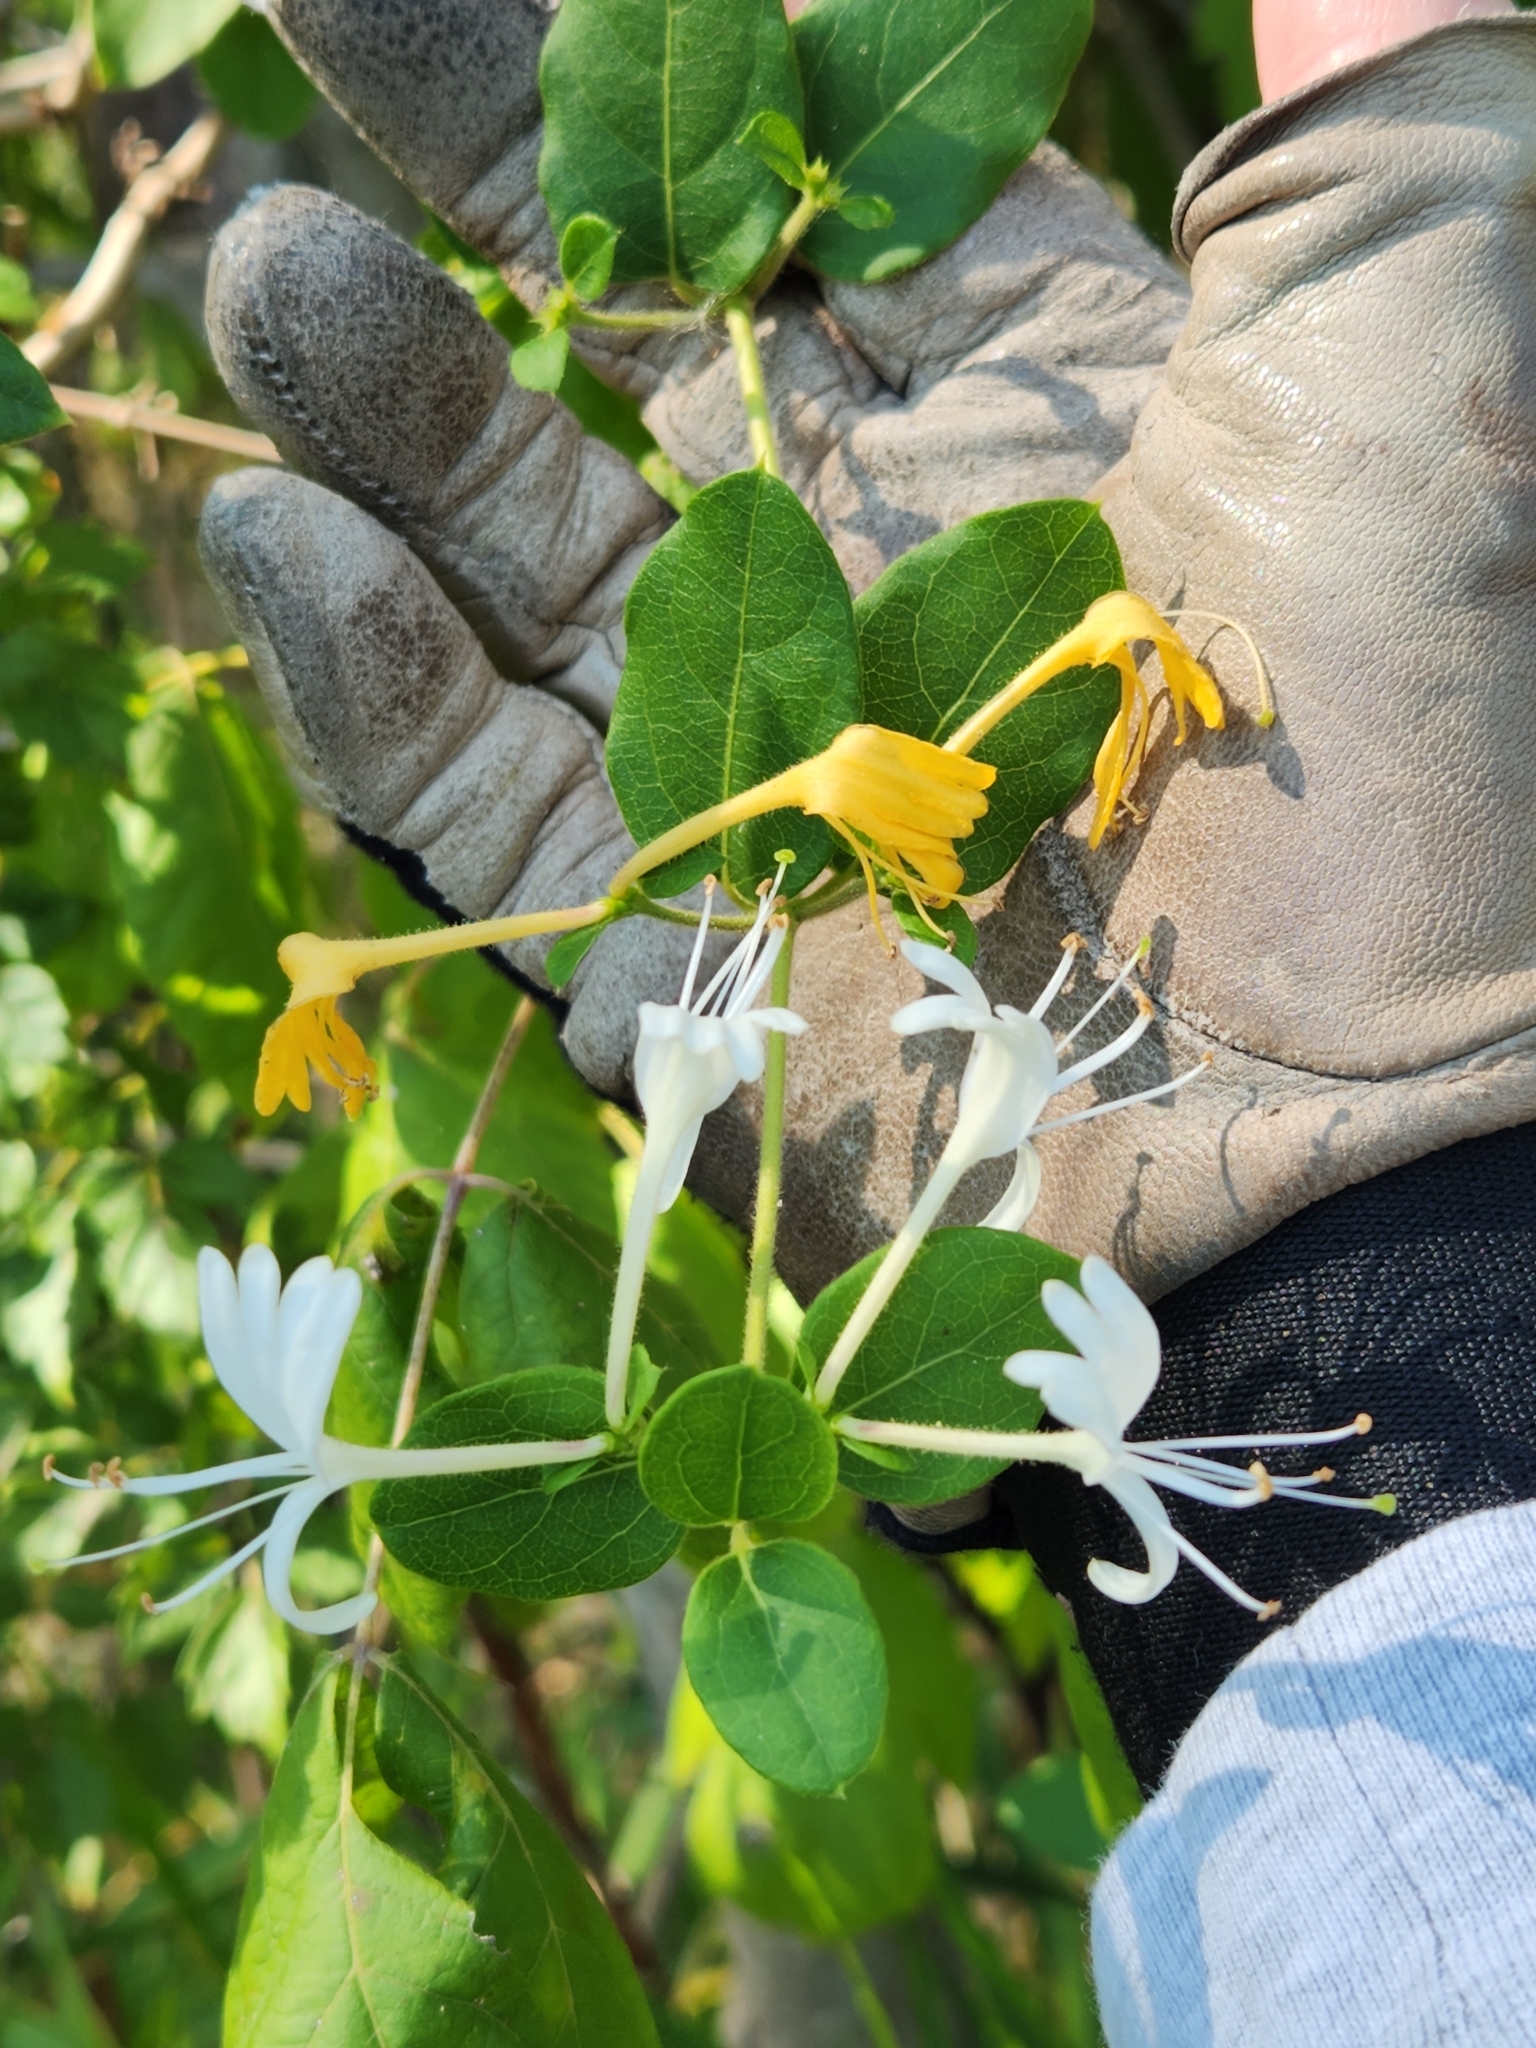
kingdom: Plantae
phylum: Tracheophyta
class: Magnoliopsida
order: Dipsacales
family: Caprifoliaceae
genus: Lonicera
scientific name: Lonicera japonica
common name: Japanese honeysuckle
